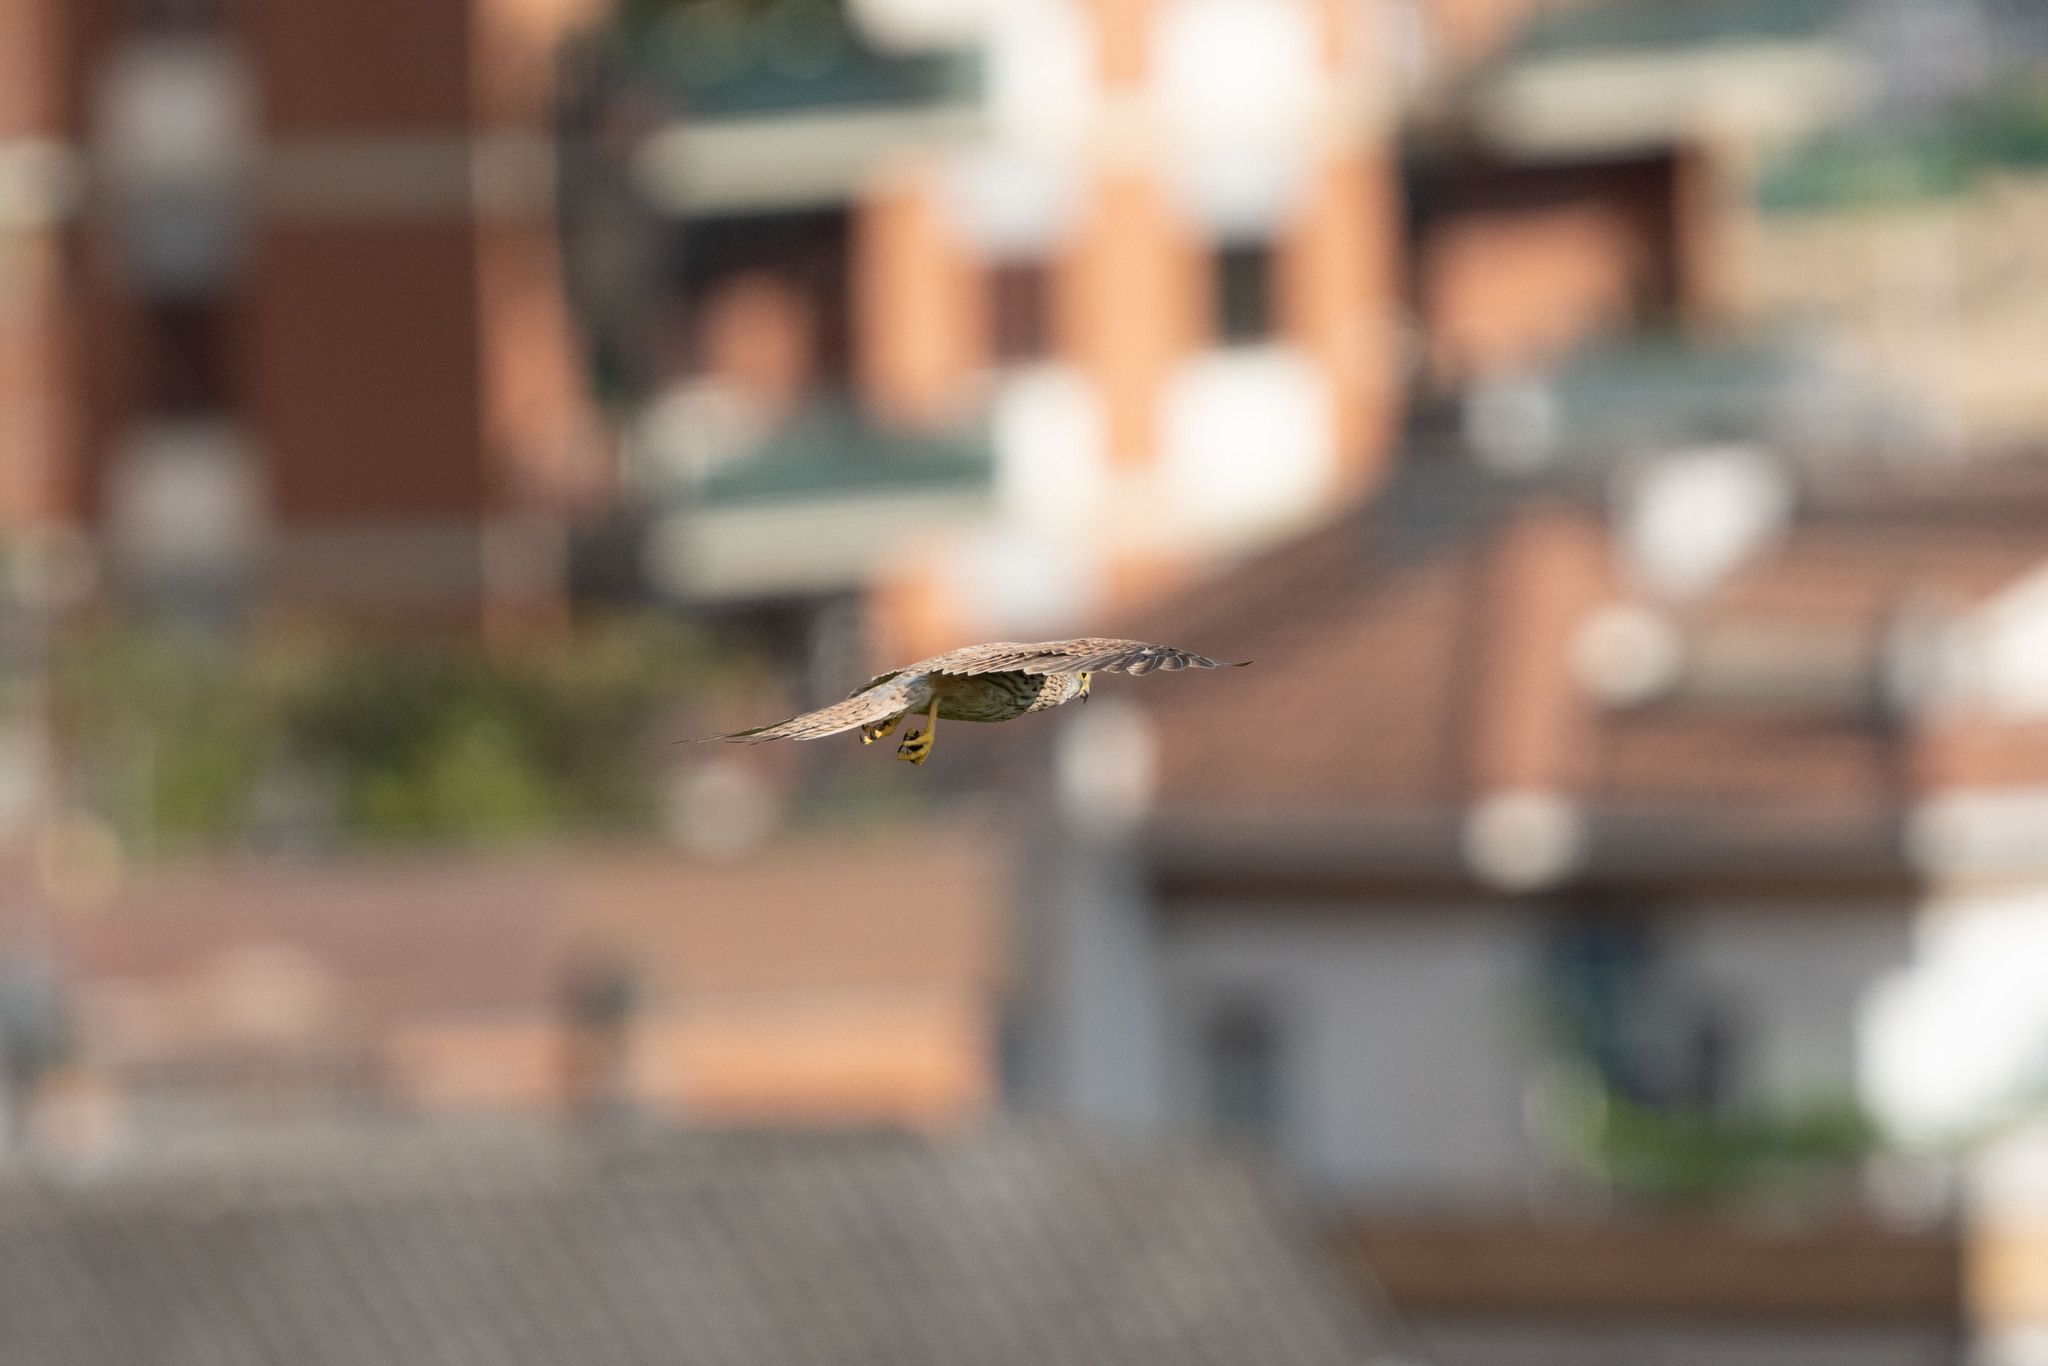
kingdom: Animalia
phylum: Chordata
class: Aves
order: Falconiformes
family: Falconidae
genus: Falco
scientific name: Falco tinnunculus
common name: Common kestrel
